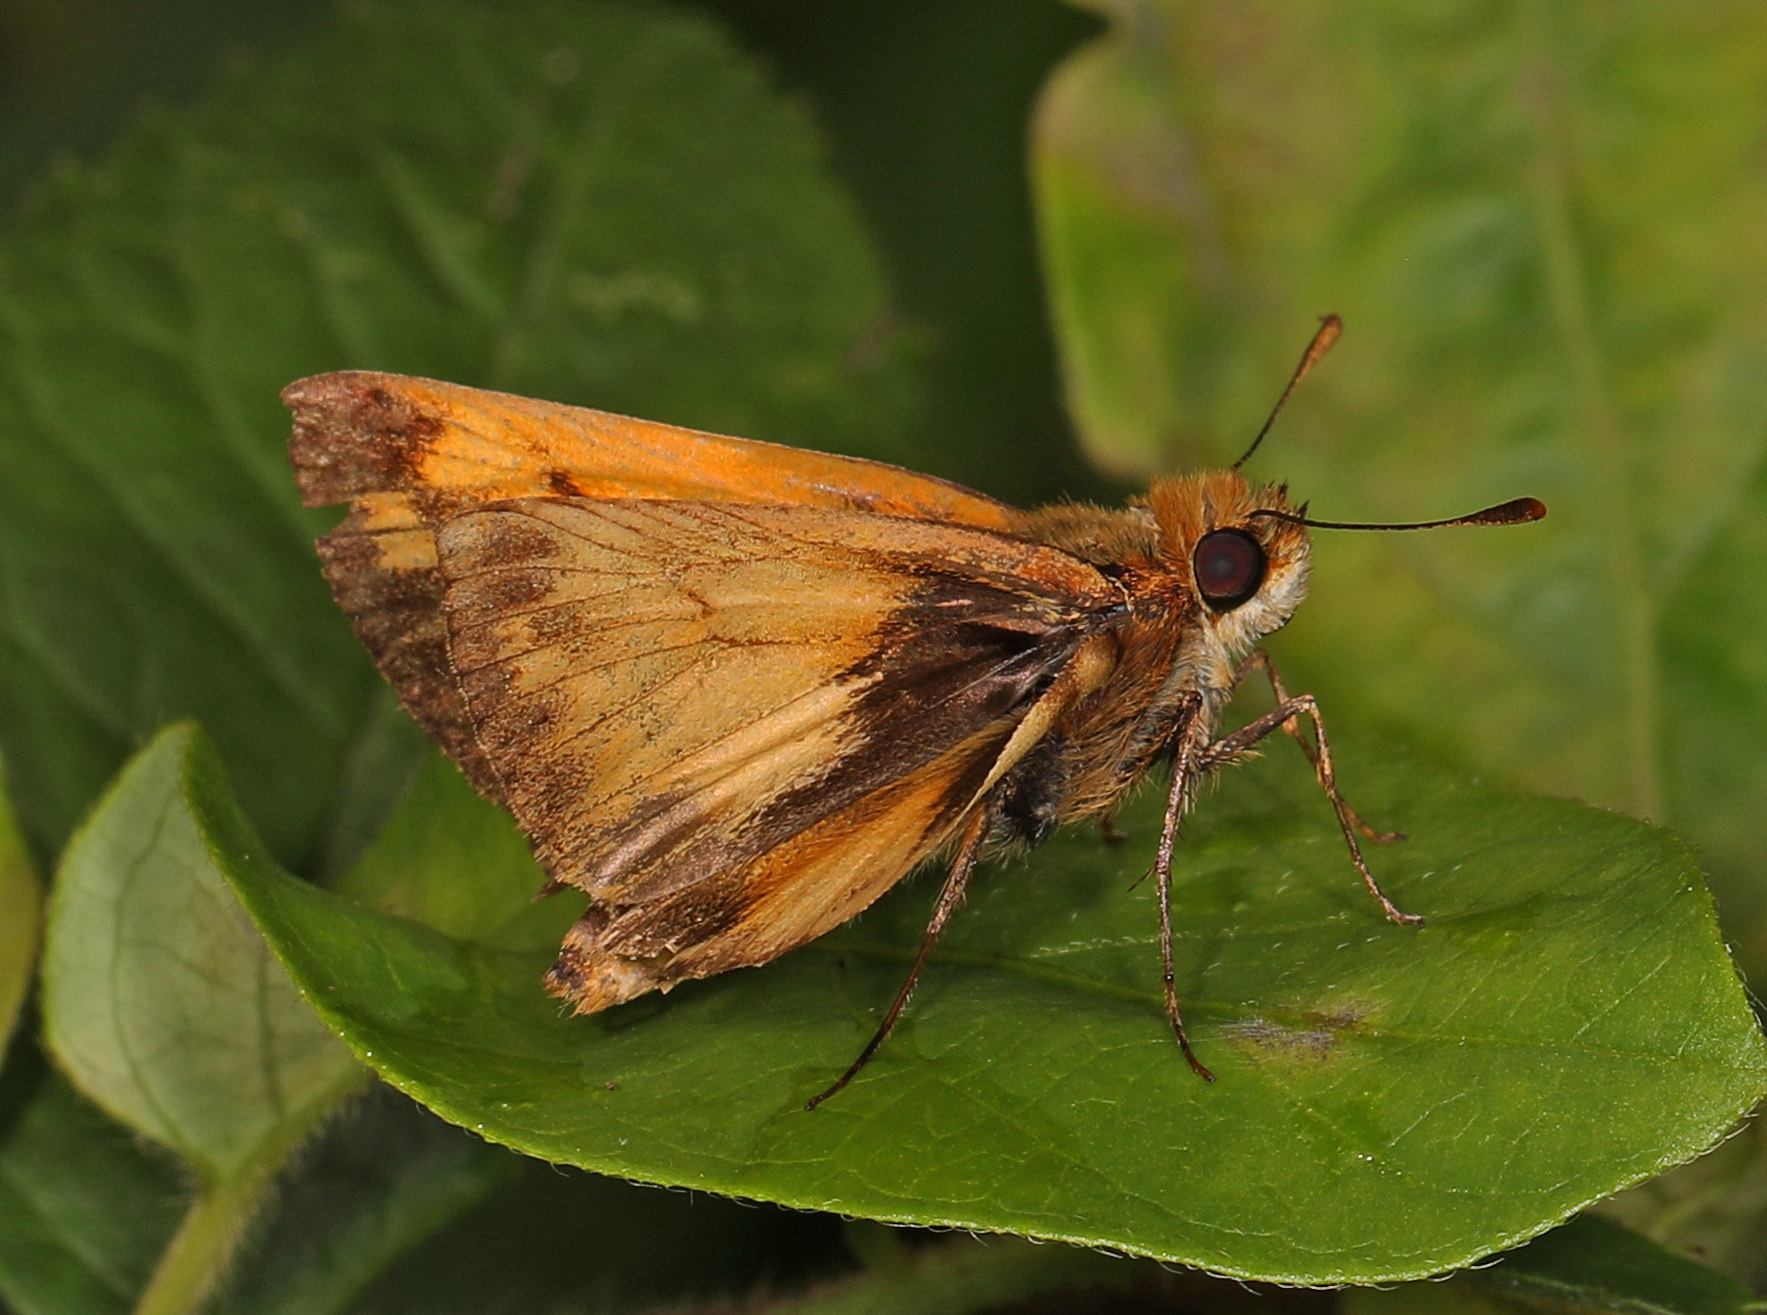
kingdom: Animalia
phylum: Arthropoda
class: Insecta
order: Lepidoptera
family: Hesperiidae
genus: Lon
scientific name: Lon zabulon
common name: Zabulon skipper
